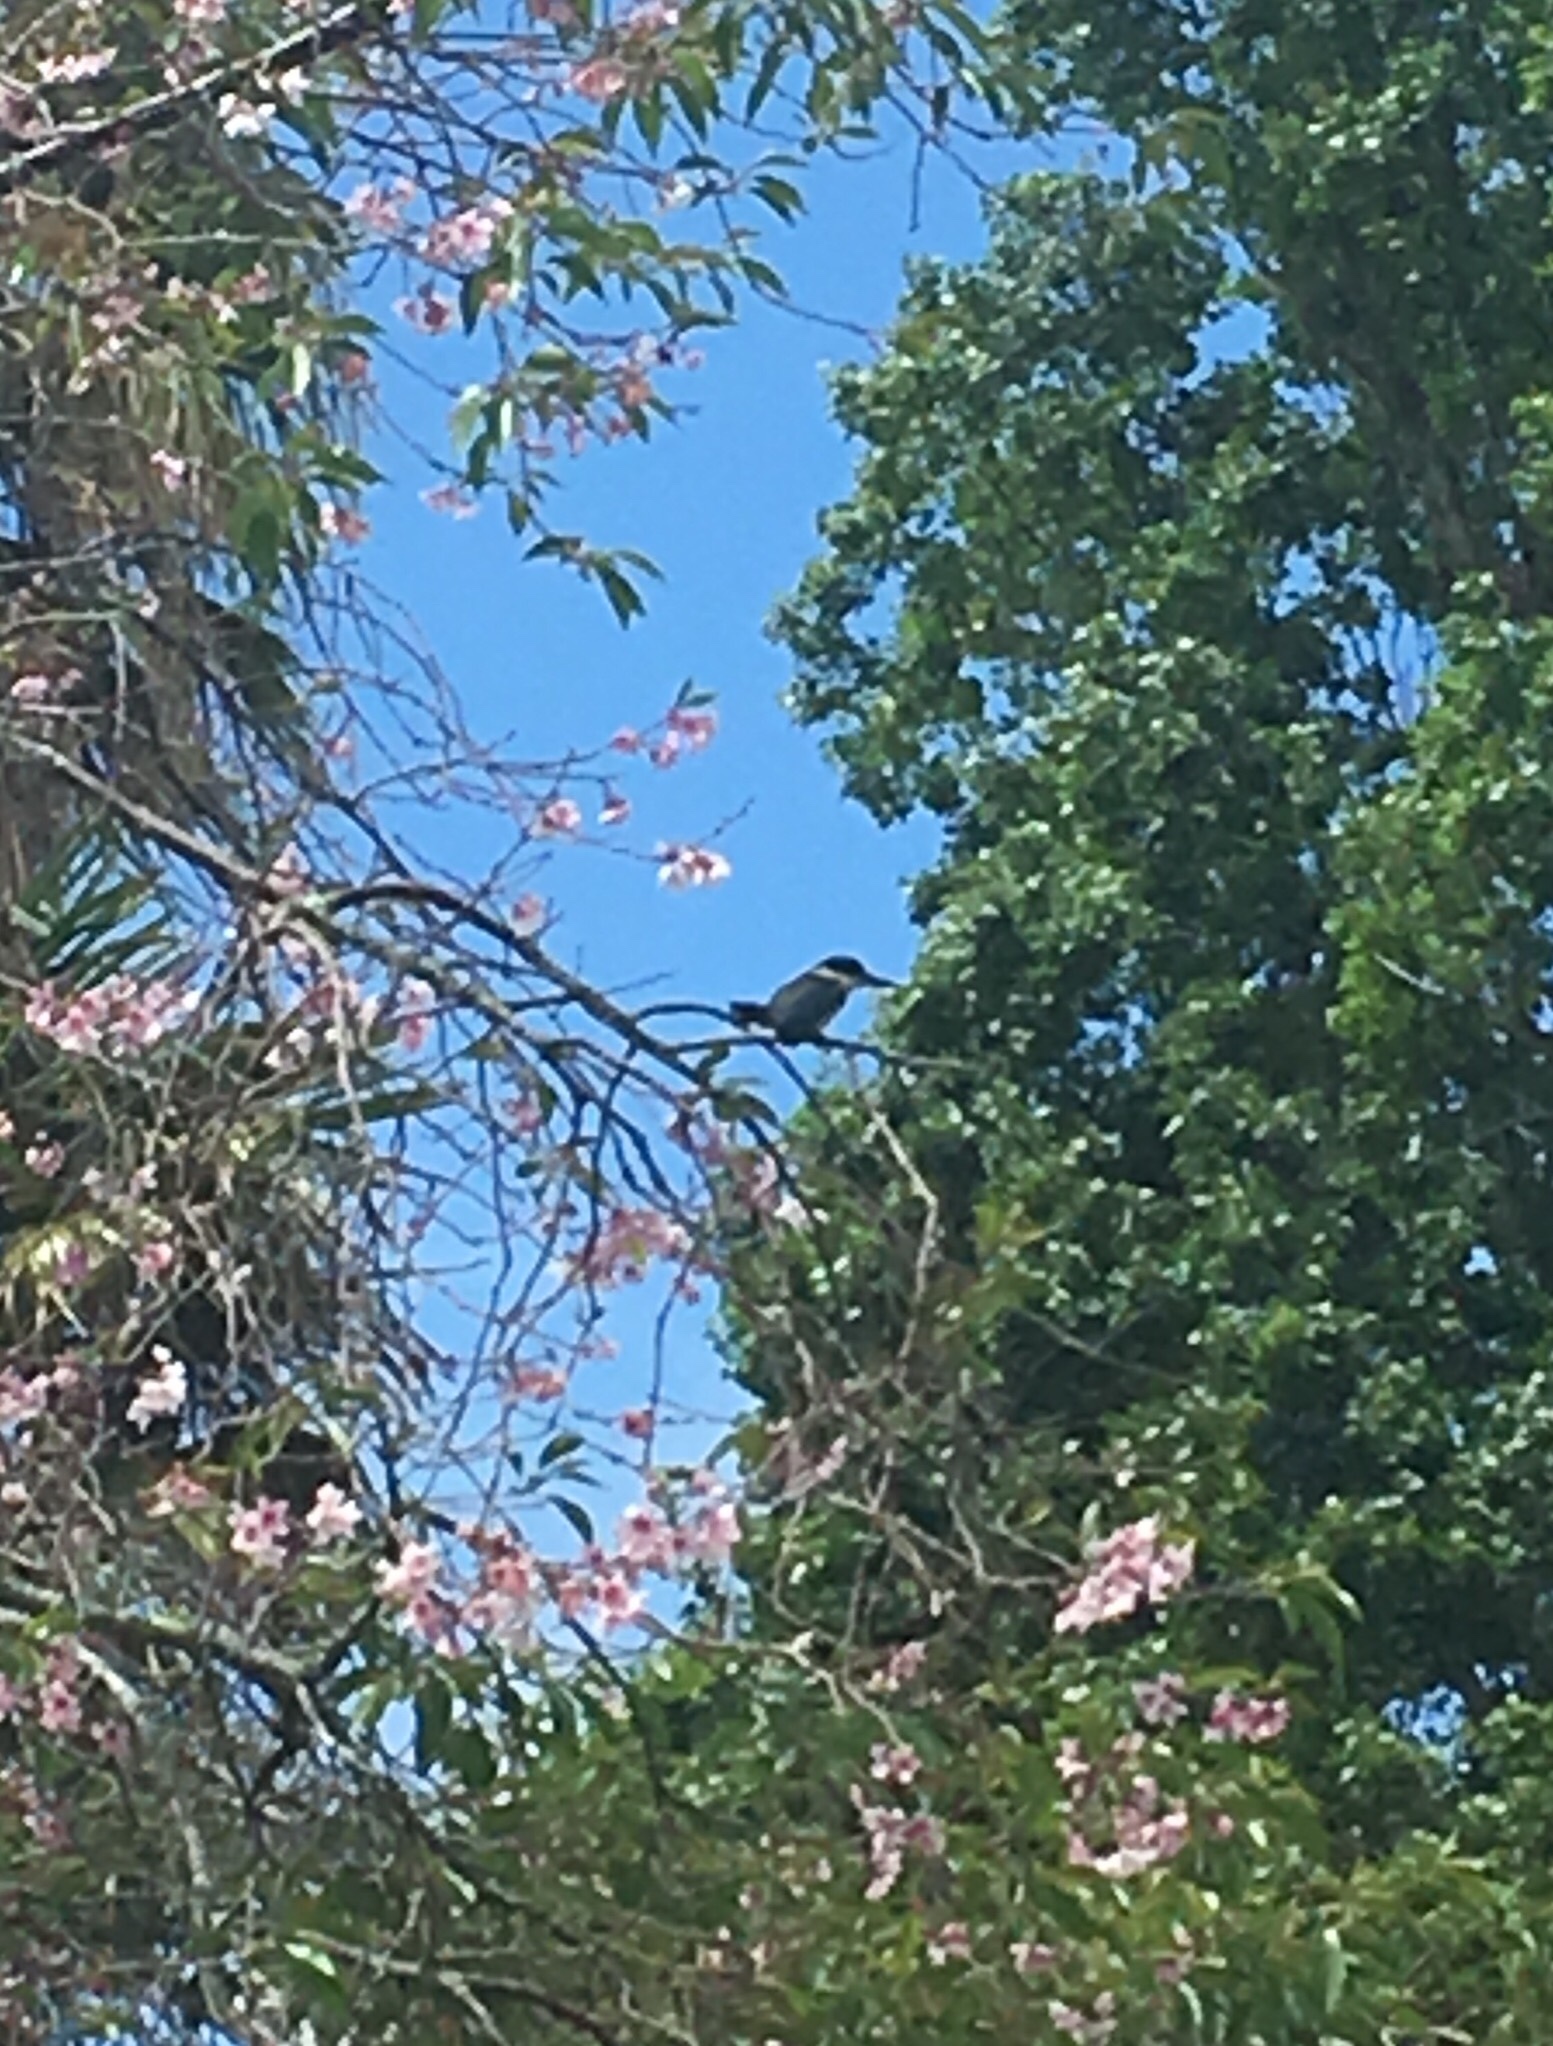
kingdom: Animalia
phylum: Chordata
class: Aves
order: Coraciiformes
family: Alcedinidae
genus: Todiramphus
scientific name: Todiramphus sanctus
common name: Sacred kingfisher
